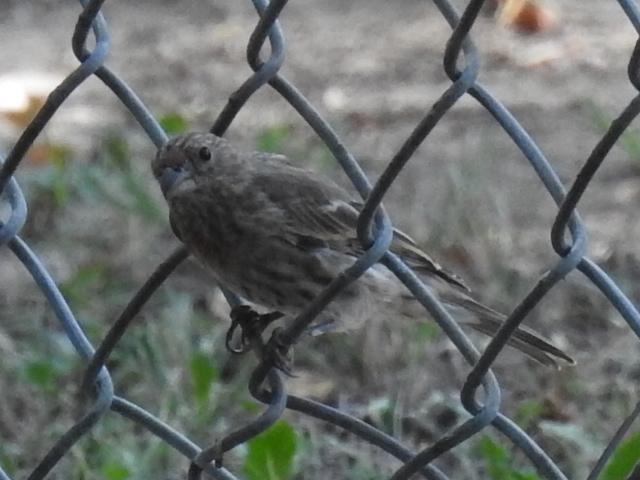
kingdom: Animalia
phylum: Chordata
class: Aves
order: Passeriformes
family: Fringillidae
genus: Haemorhous
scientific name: Haemorhous mexicanus
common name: House finch
